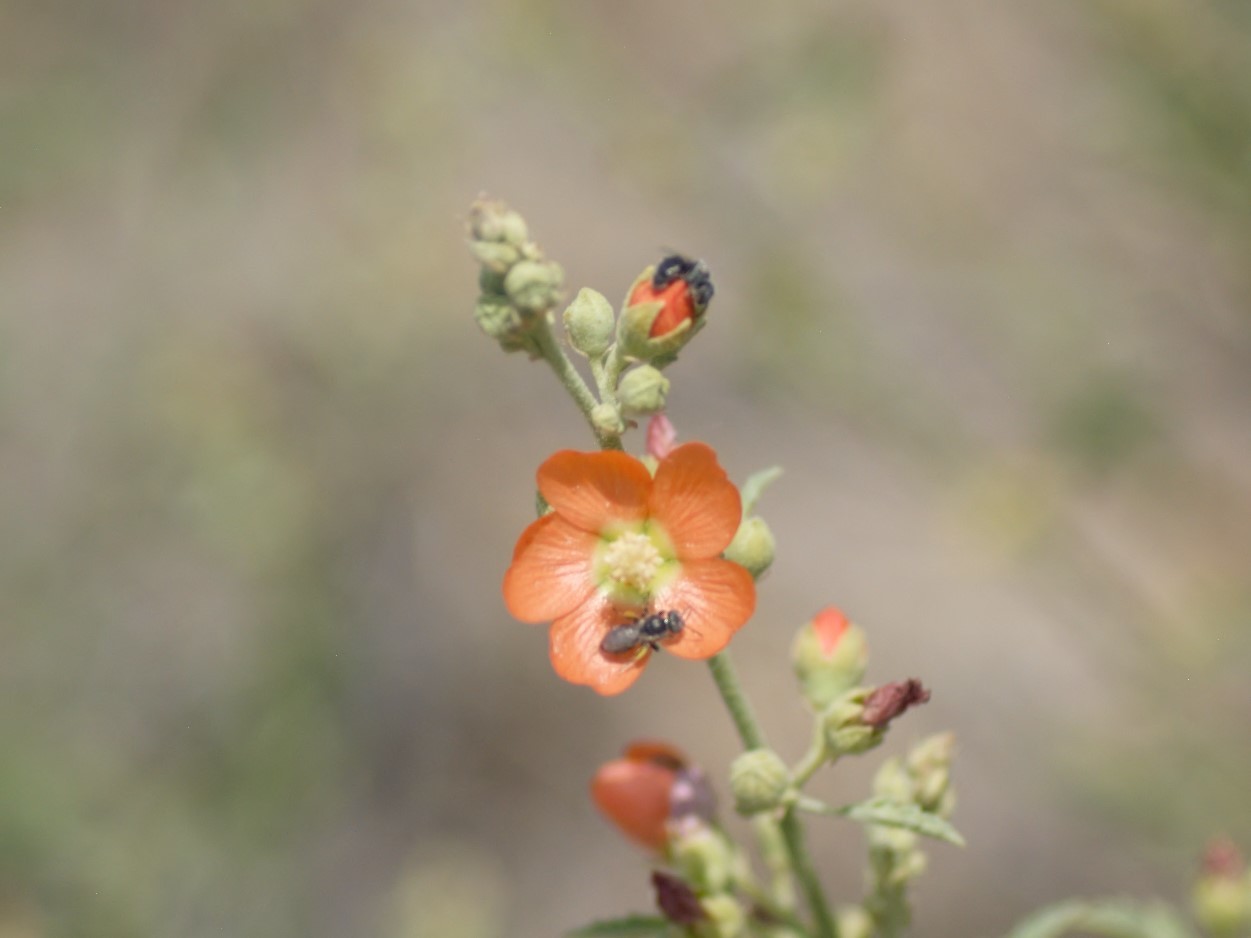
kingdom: Animalia
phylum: Arthropoda
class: Insecta
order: Hymenoptera
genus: Macroteropsis
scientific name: Macroteropsis
